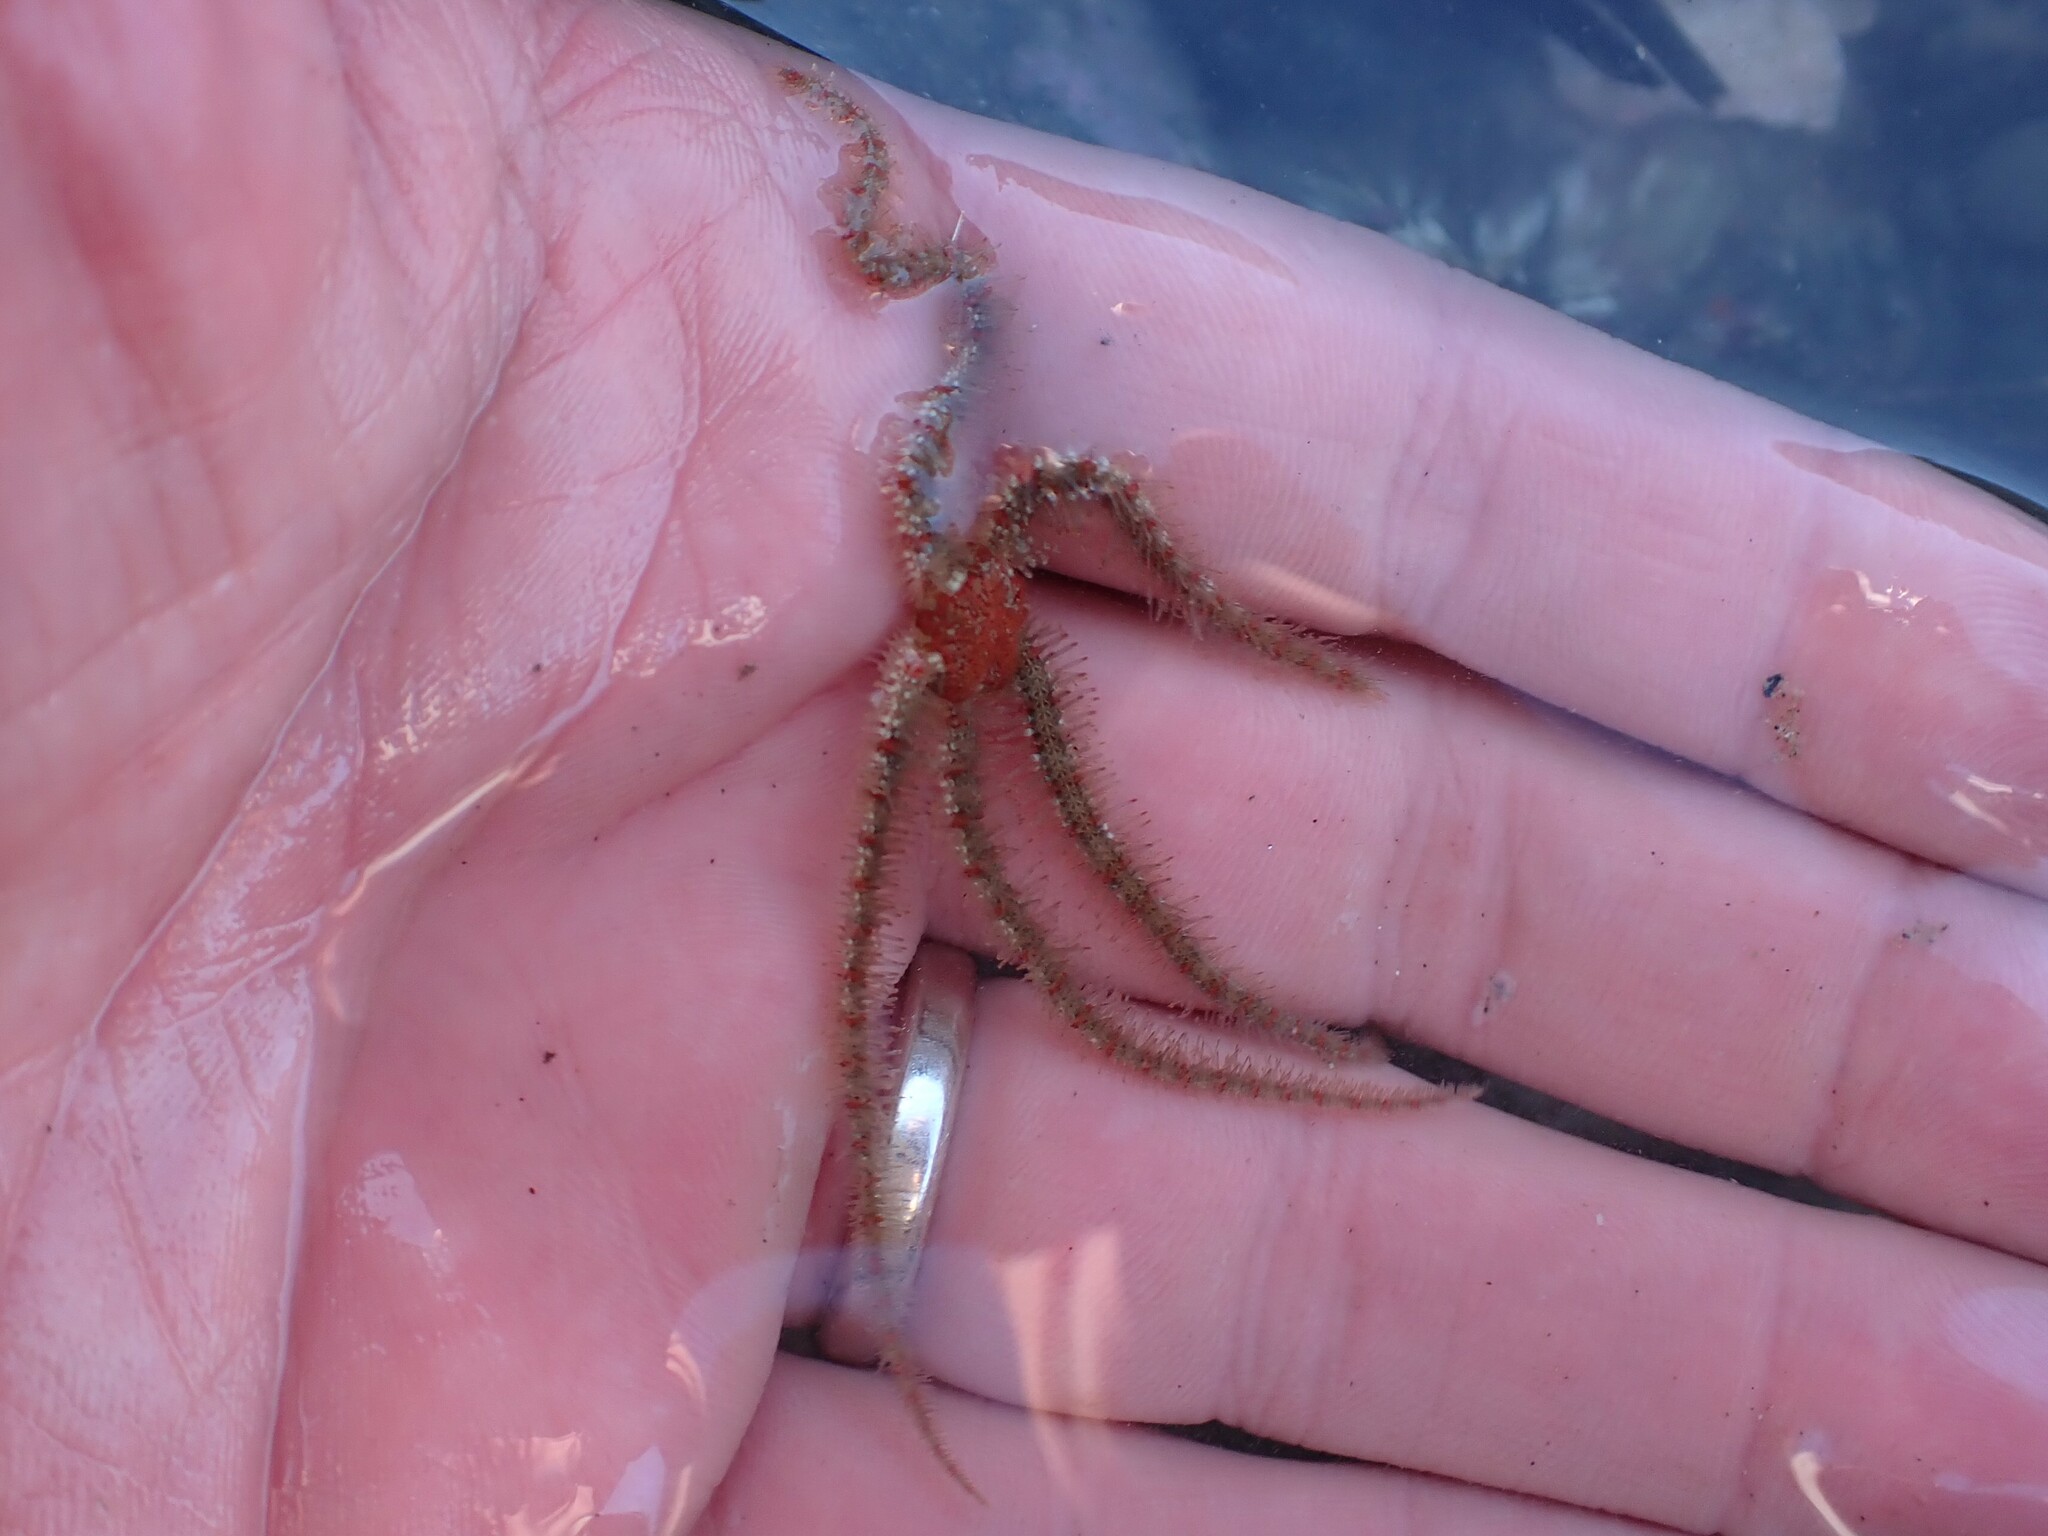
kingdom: Animalia
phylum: Echinodermata
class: Ophiuroidea
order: Amphilepidida
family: Ophiotrichidae
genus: Ophiothrix
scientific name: Ophiothrix spiculata
